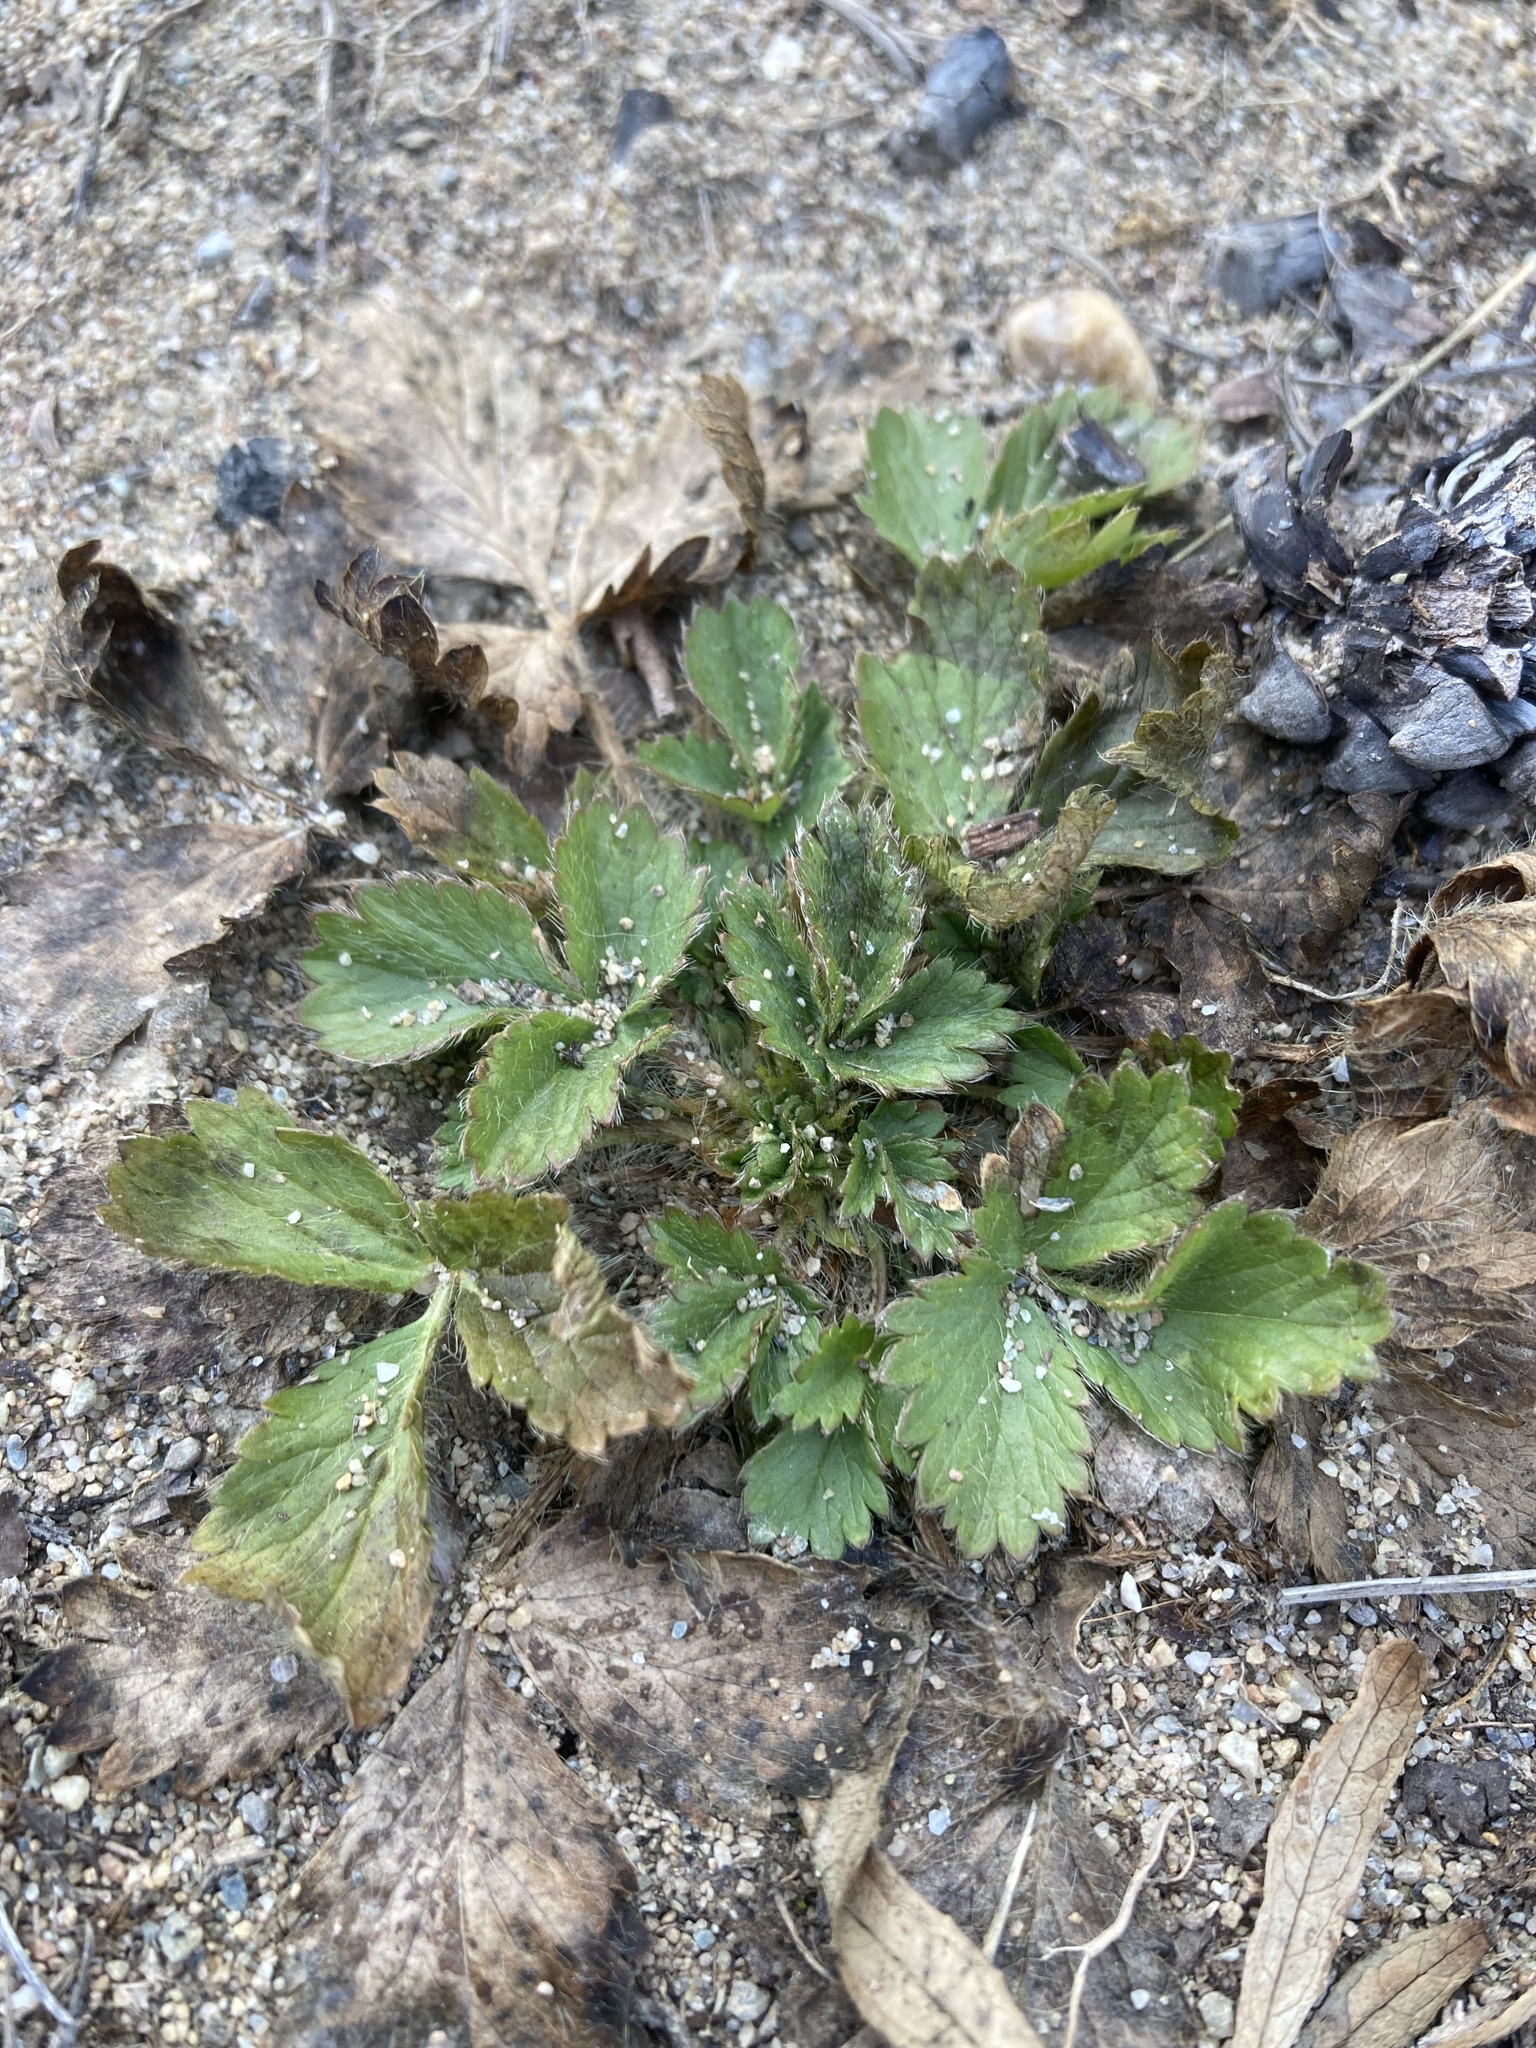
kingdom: Plantae
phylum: Tracheophyta
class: Magnoliopsida
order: Rosales
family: Rosaceae
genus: Potentilla
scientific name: Potentilla norvegica
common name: Ternate-leaved cinquefoil
